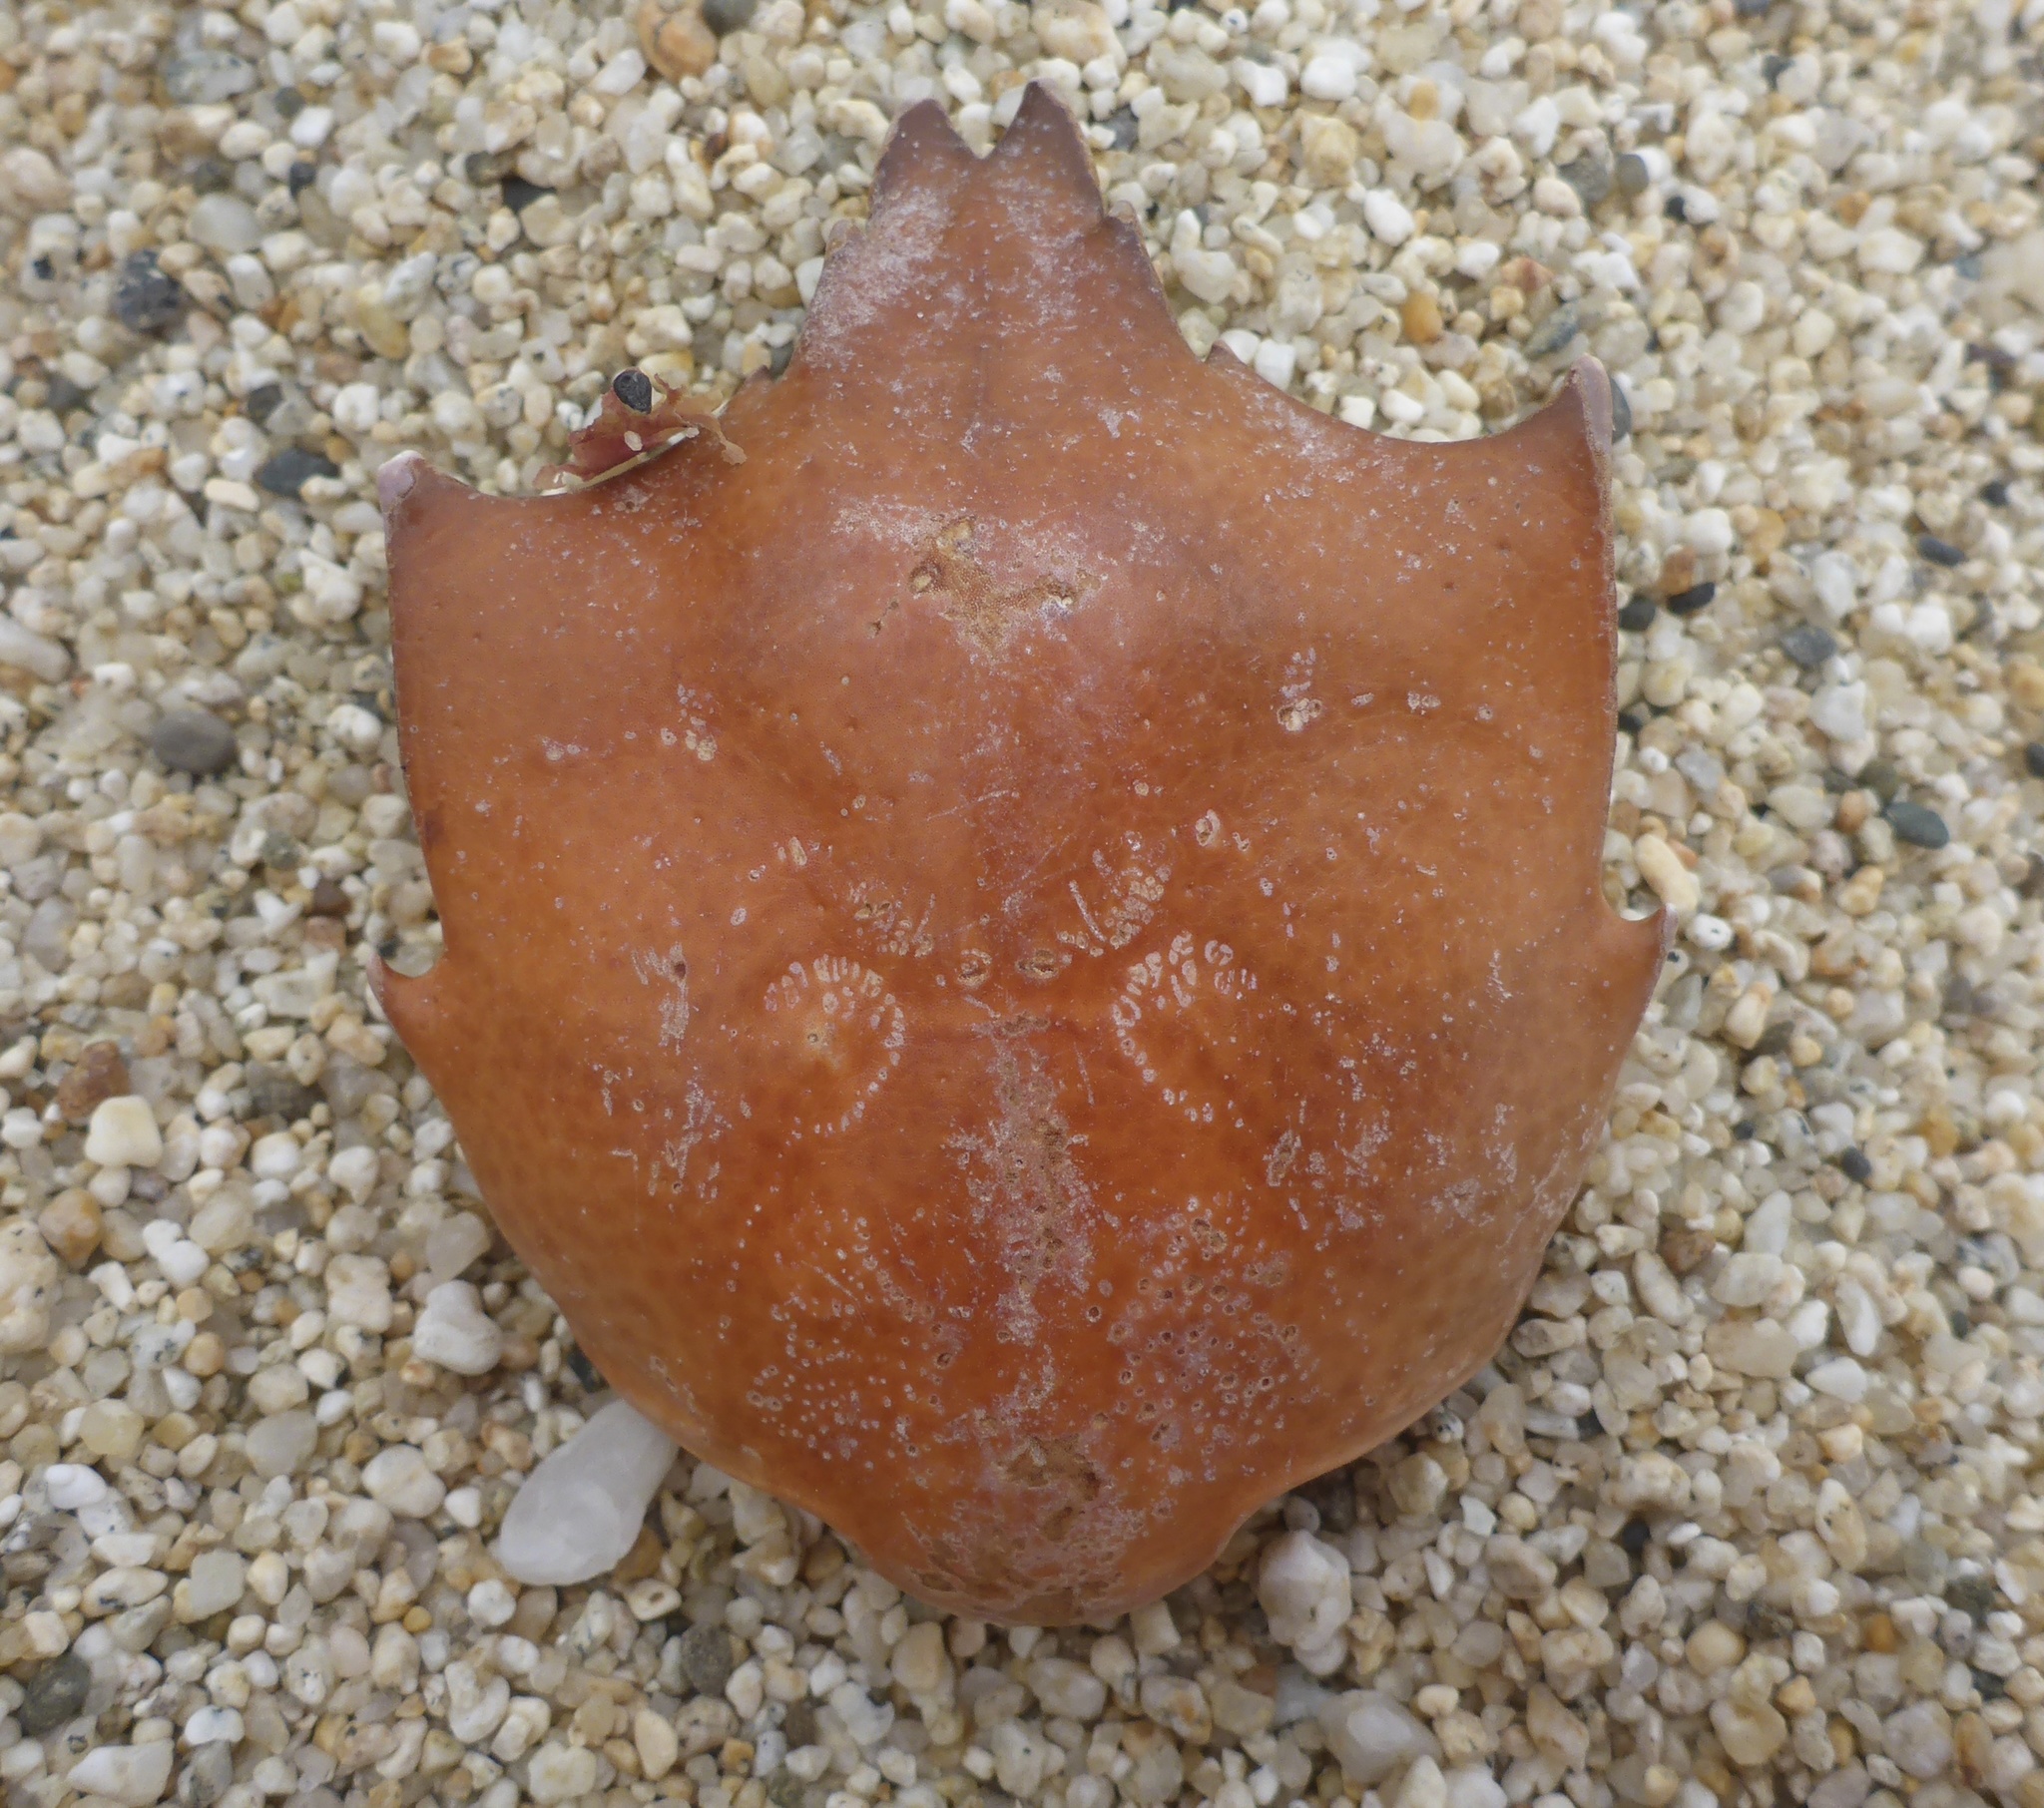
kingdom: Animalia
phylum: Arthropoda
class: Malacostraca
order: Decapoda
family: Epialtidae
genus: Pugettia
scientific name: Pugettia producta
